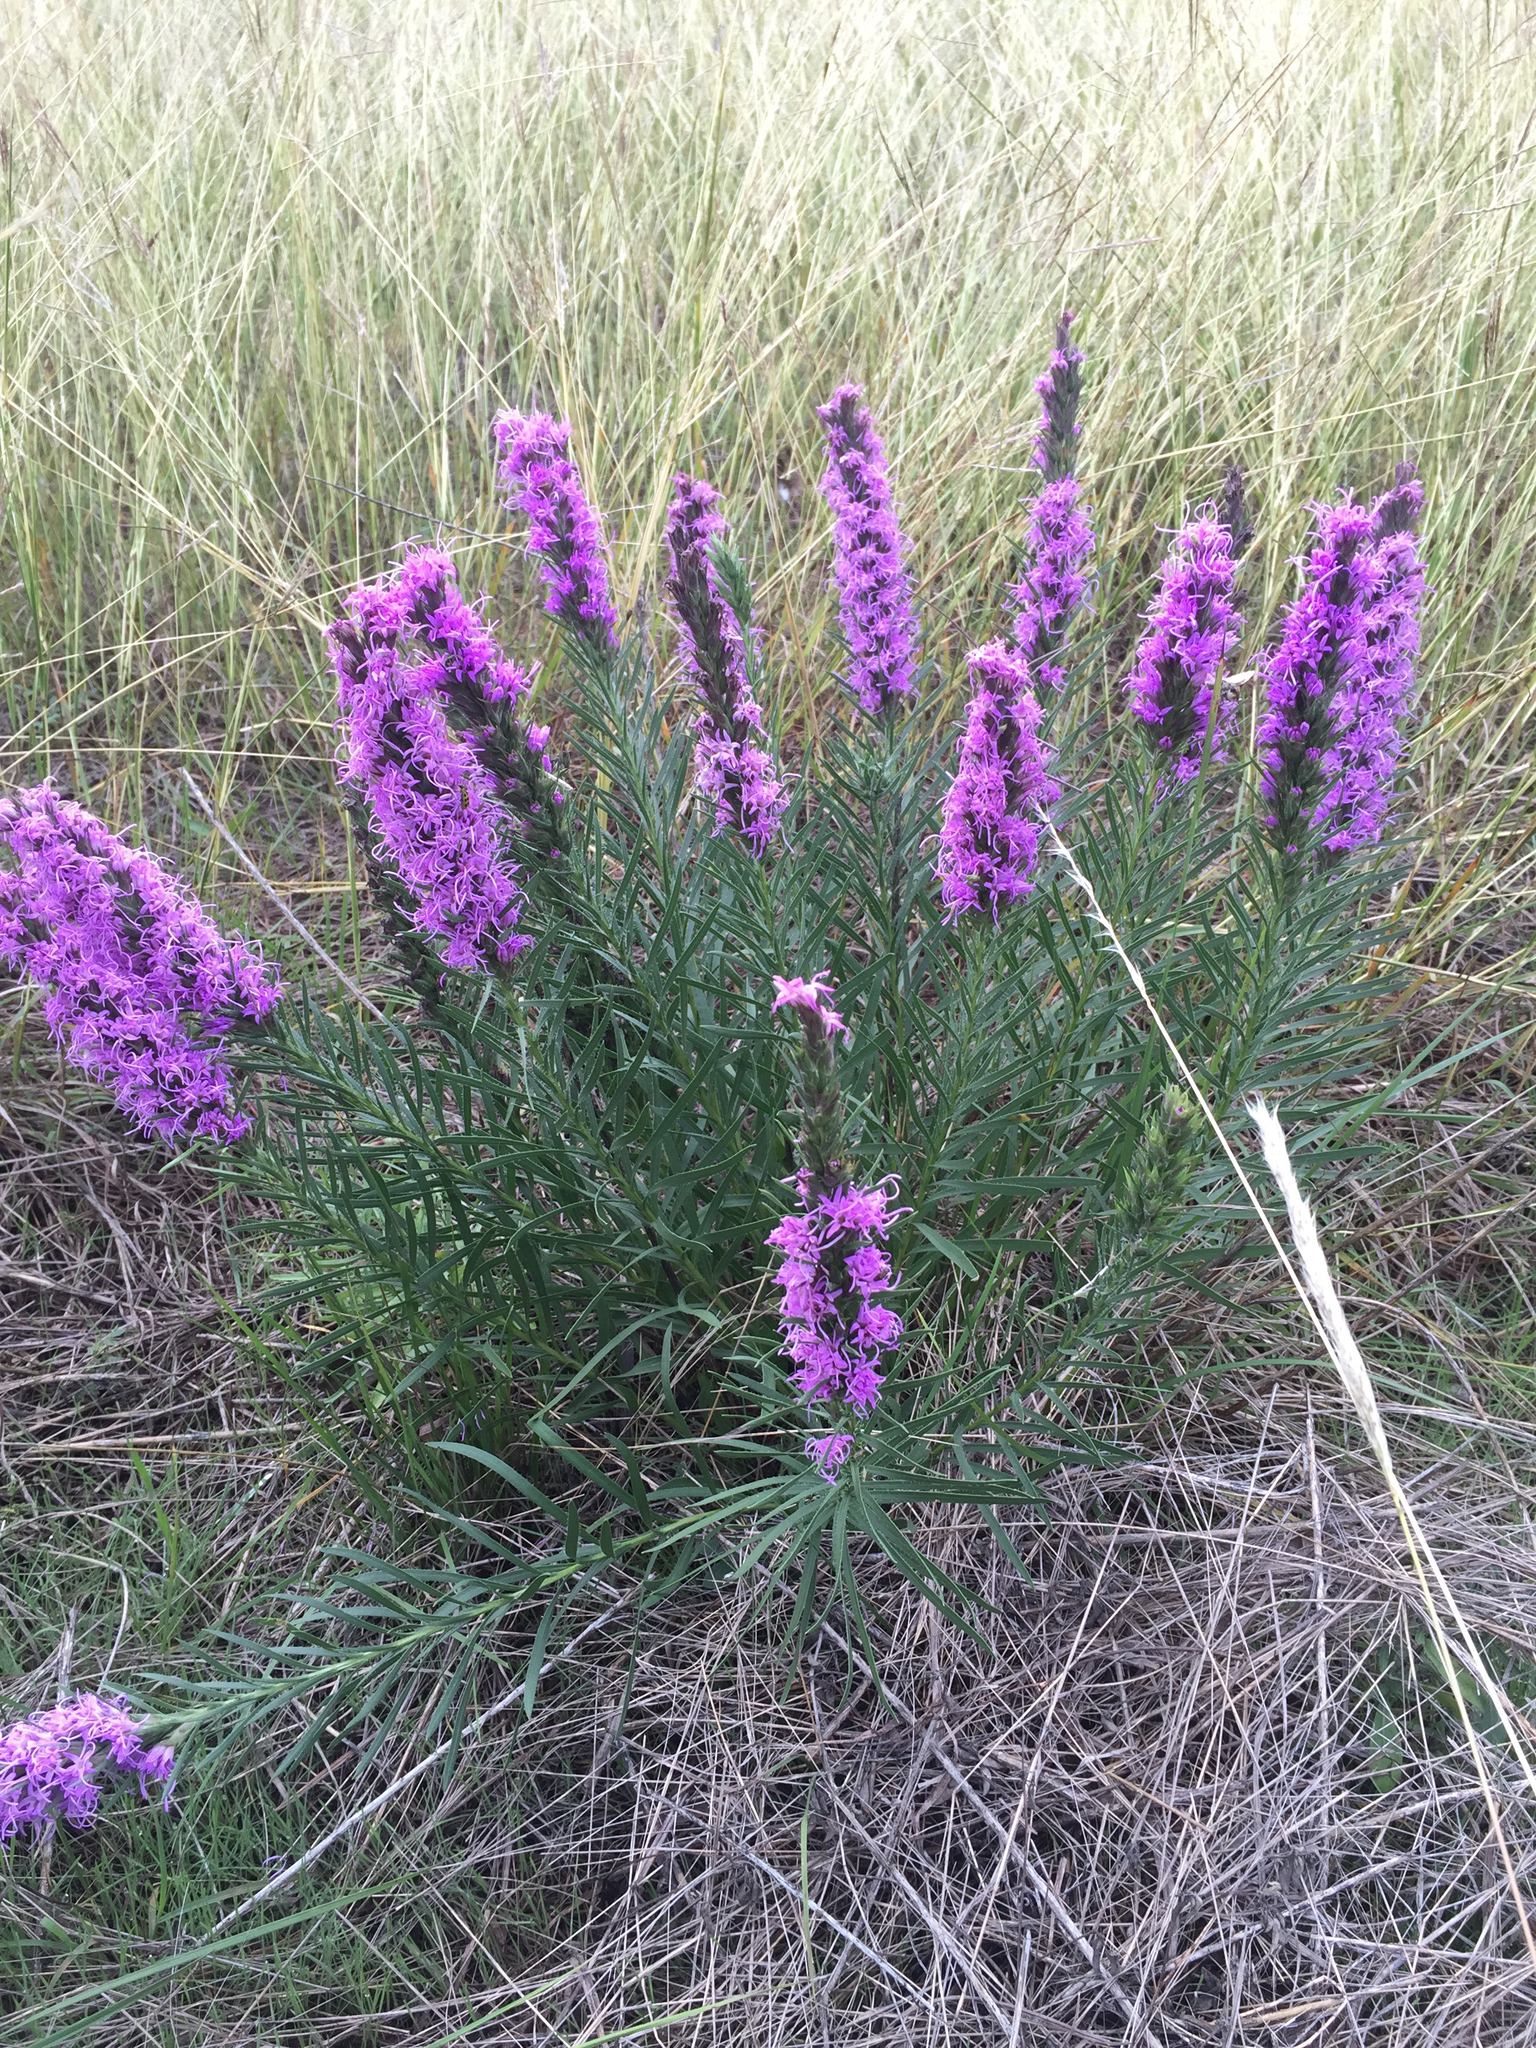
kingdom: Plantae
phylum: Tracheophyta
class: Magnoliopsida
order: Asterales
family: Asteraceae
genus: Liatris
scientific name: Liatris punctata
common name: Dotted gayfeather
